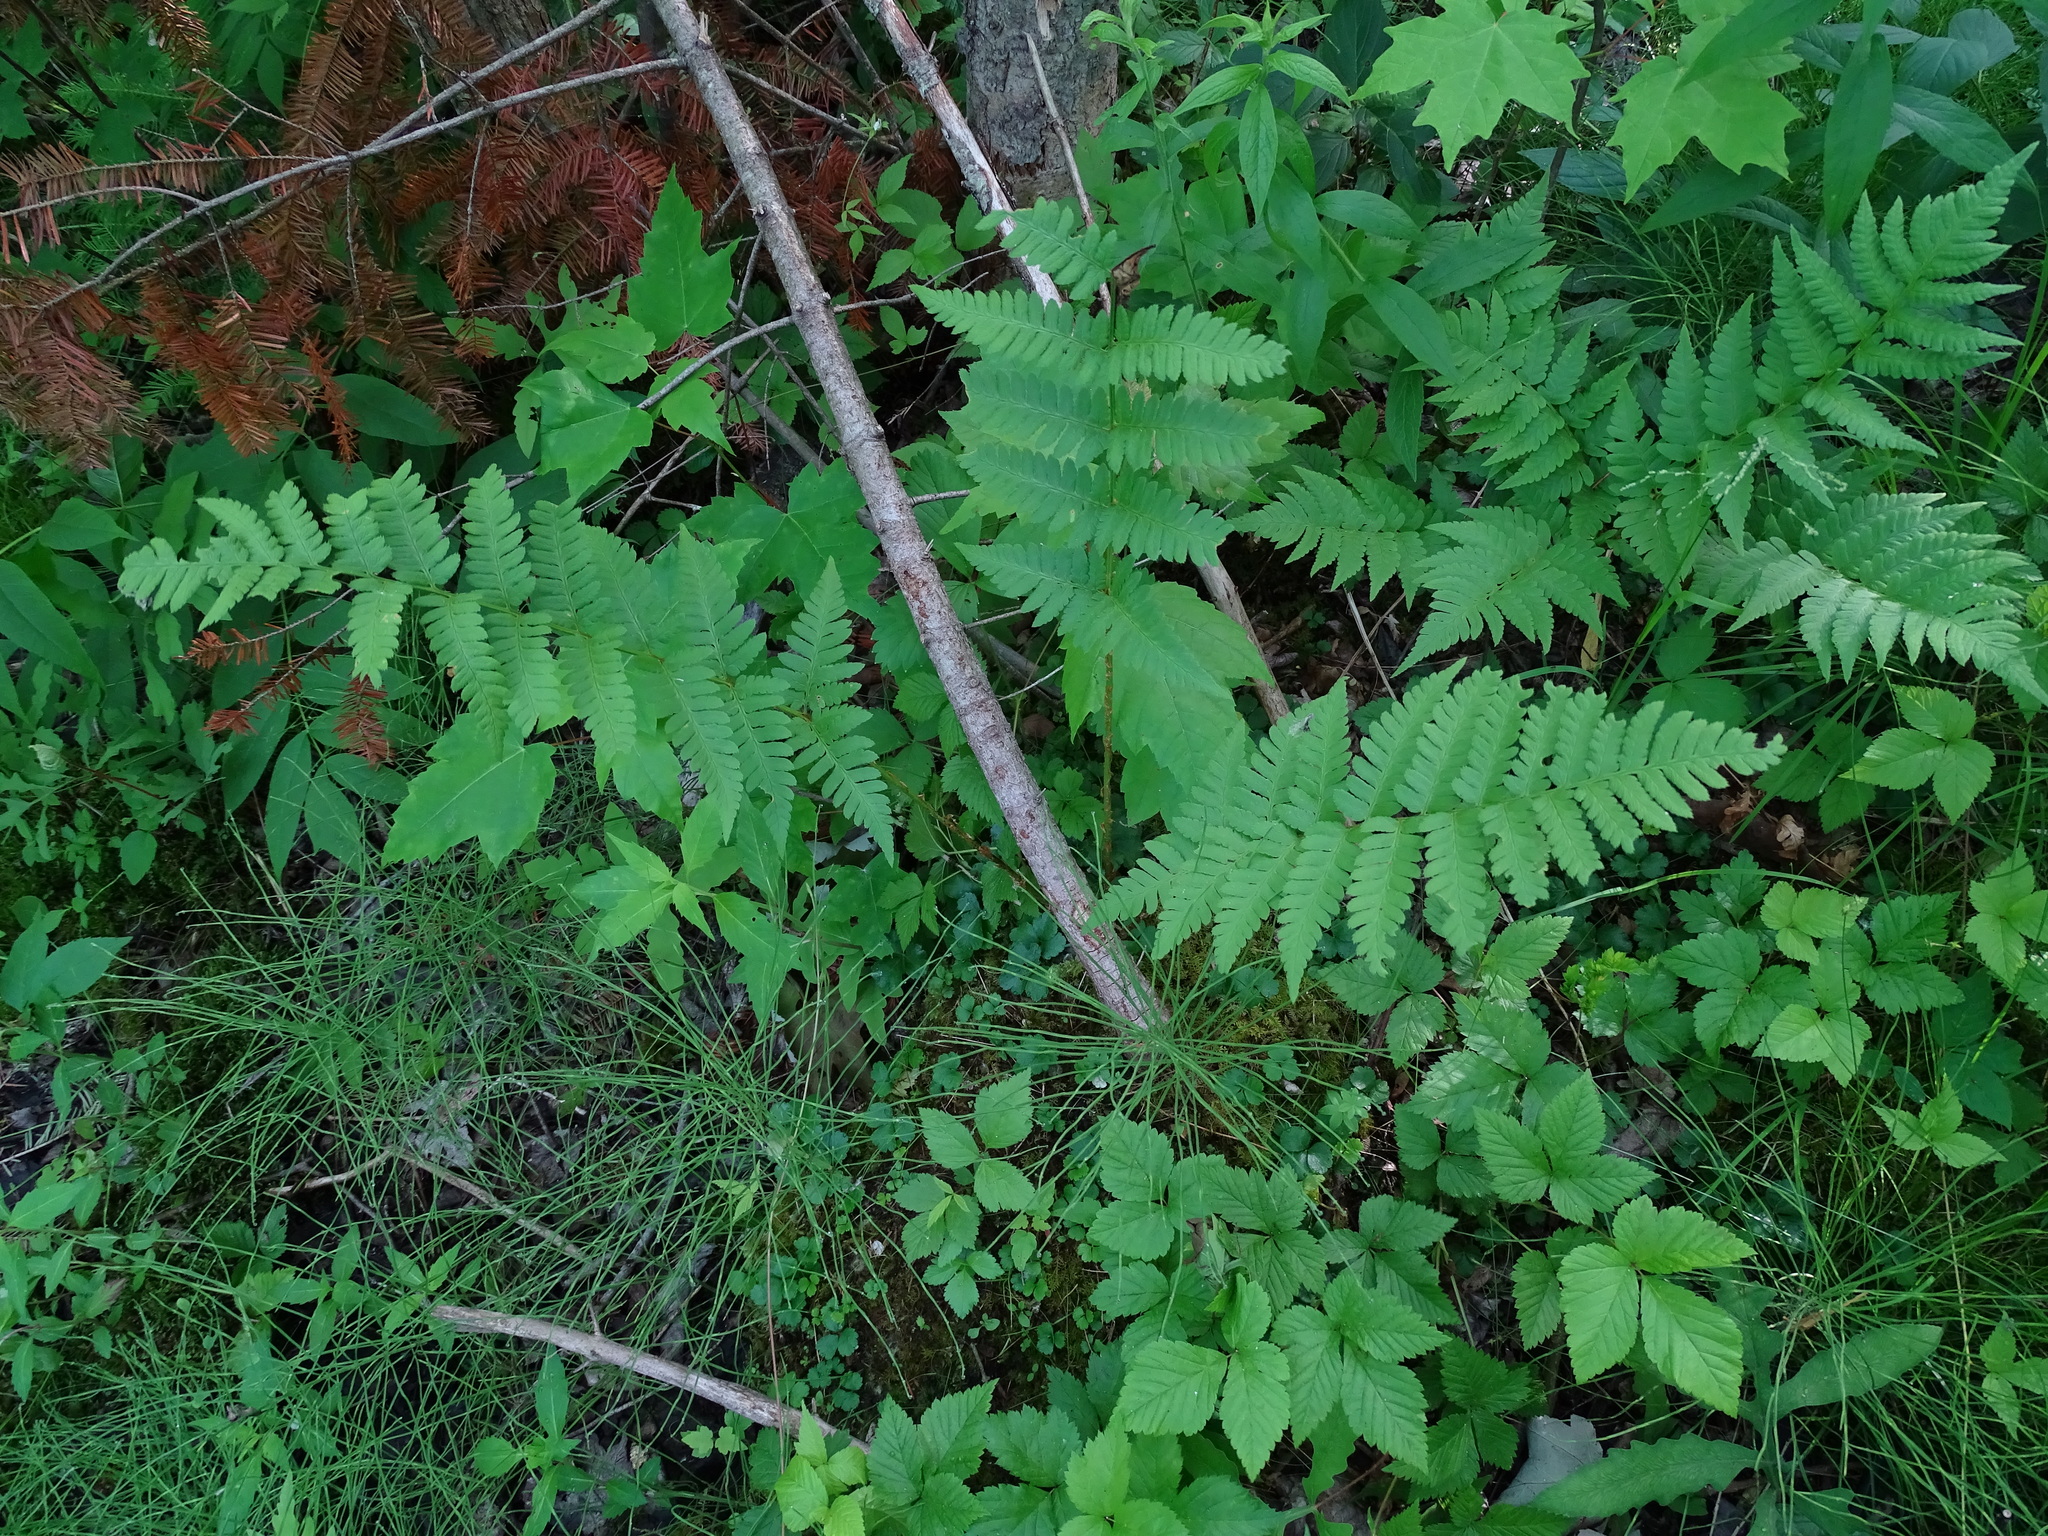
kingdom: Plantae
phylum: Tracheophyta
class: Polypodiopsida
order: Polypodiales
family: Dryopteridaceae
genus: Dryopteris
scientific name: Dryopteris cristata
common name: Crested wood fern
